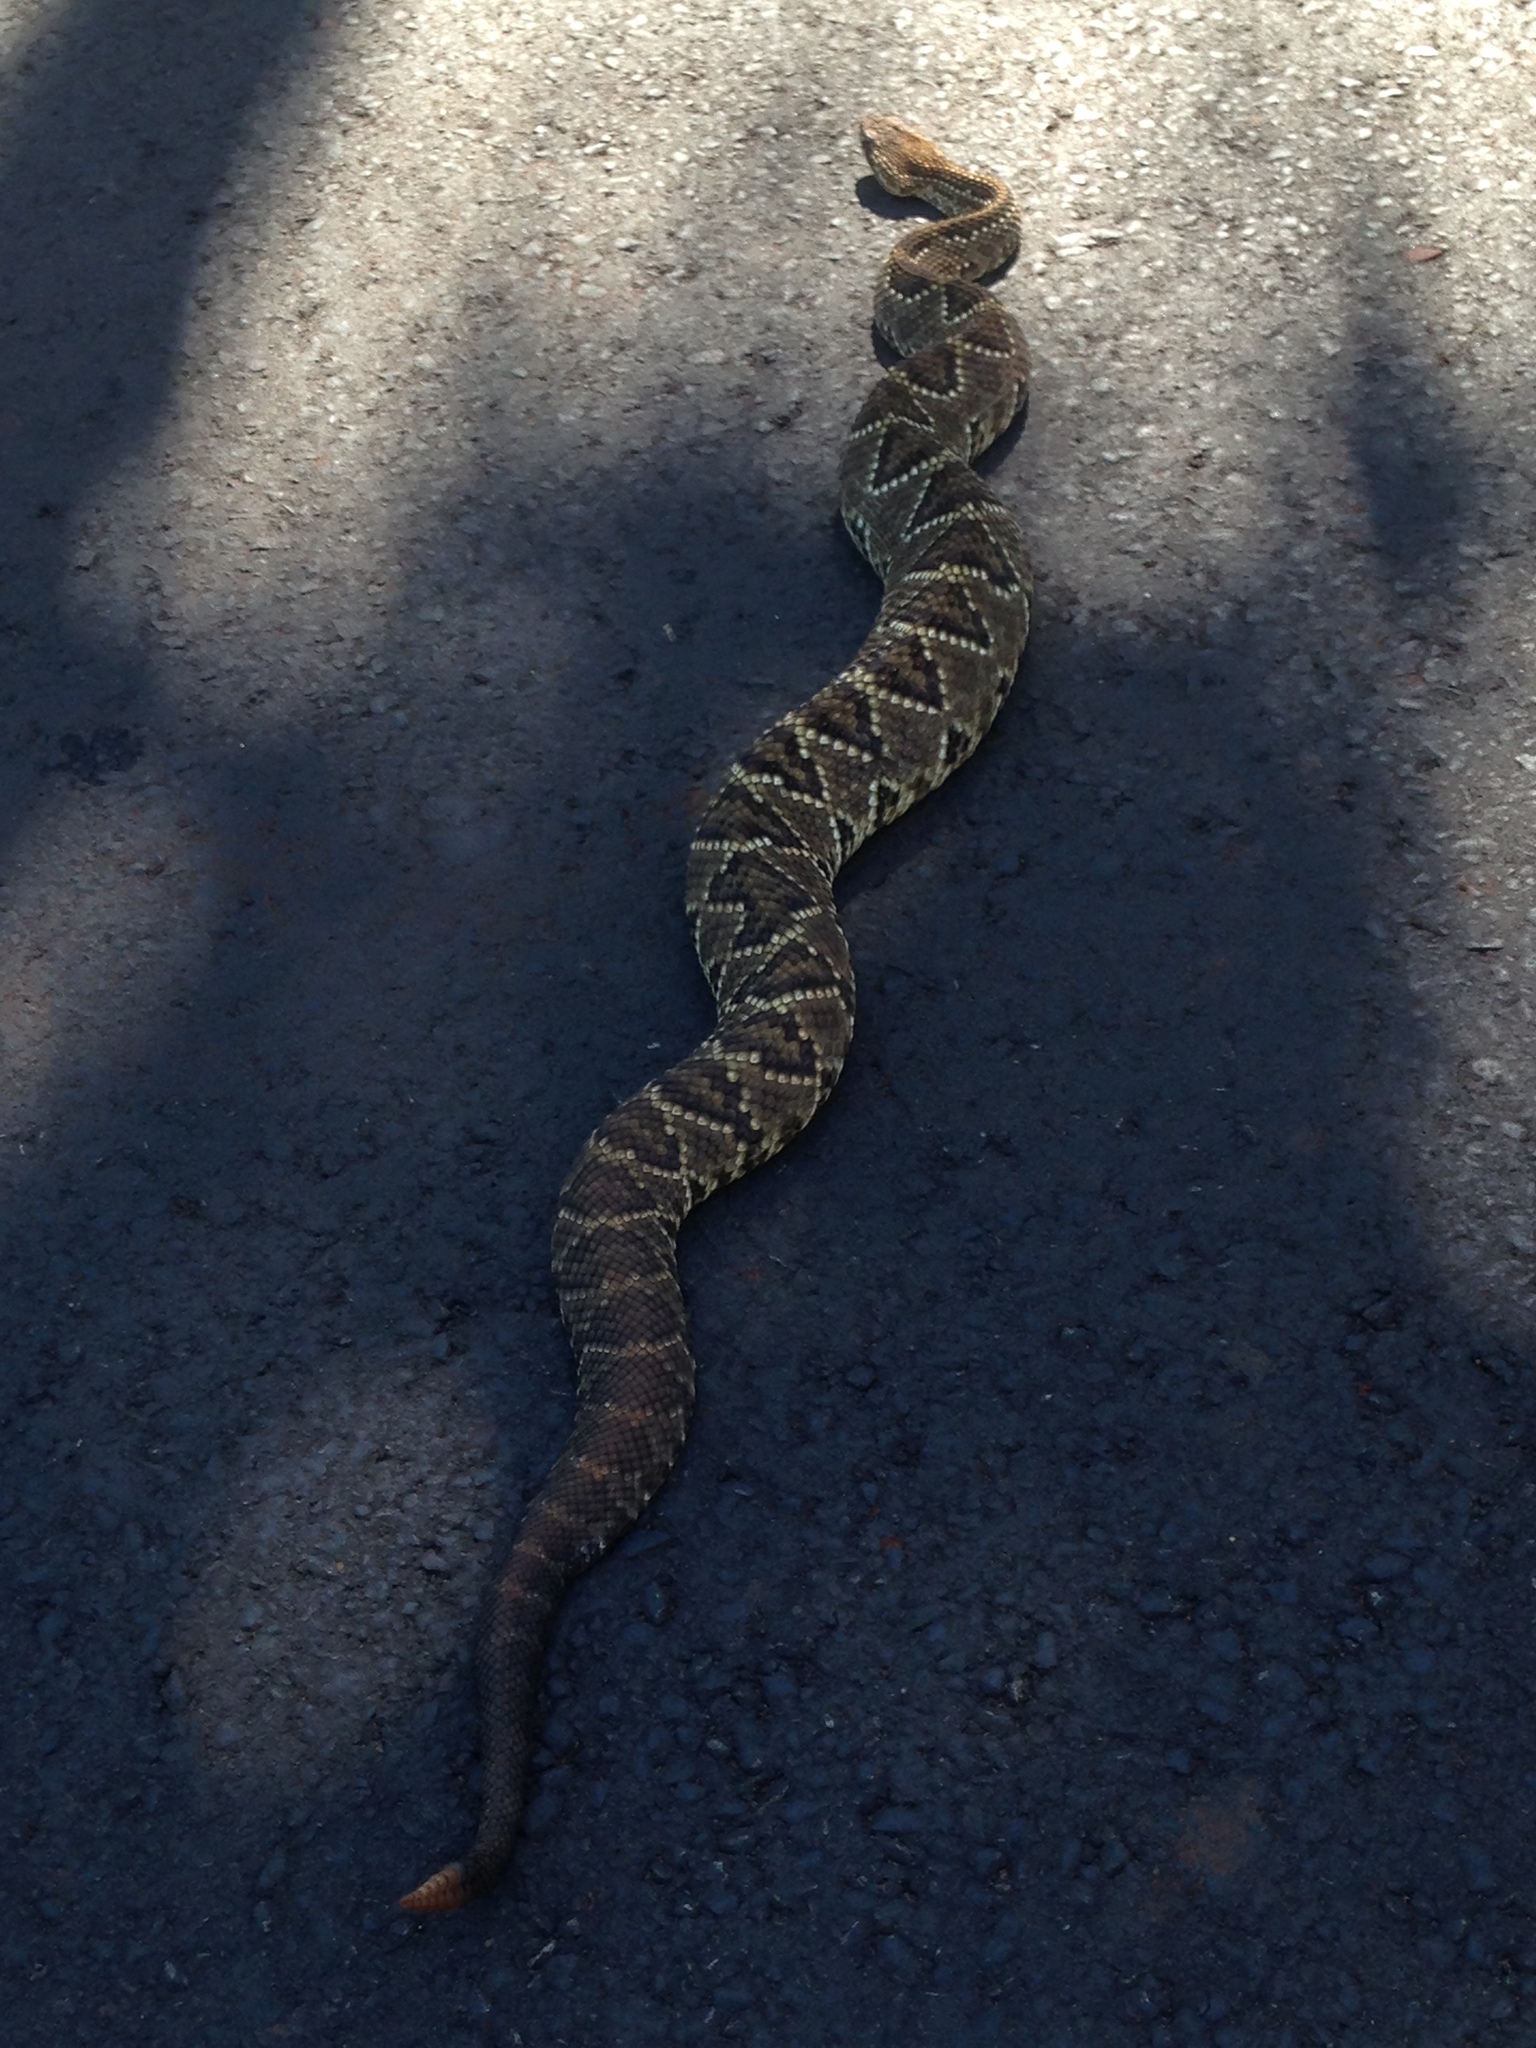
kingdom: Animalia
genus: Crotalus
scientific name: Crotalus durissus
